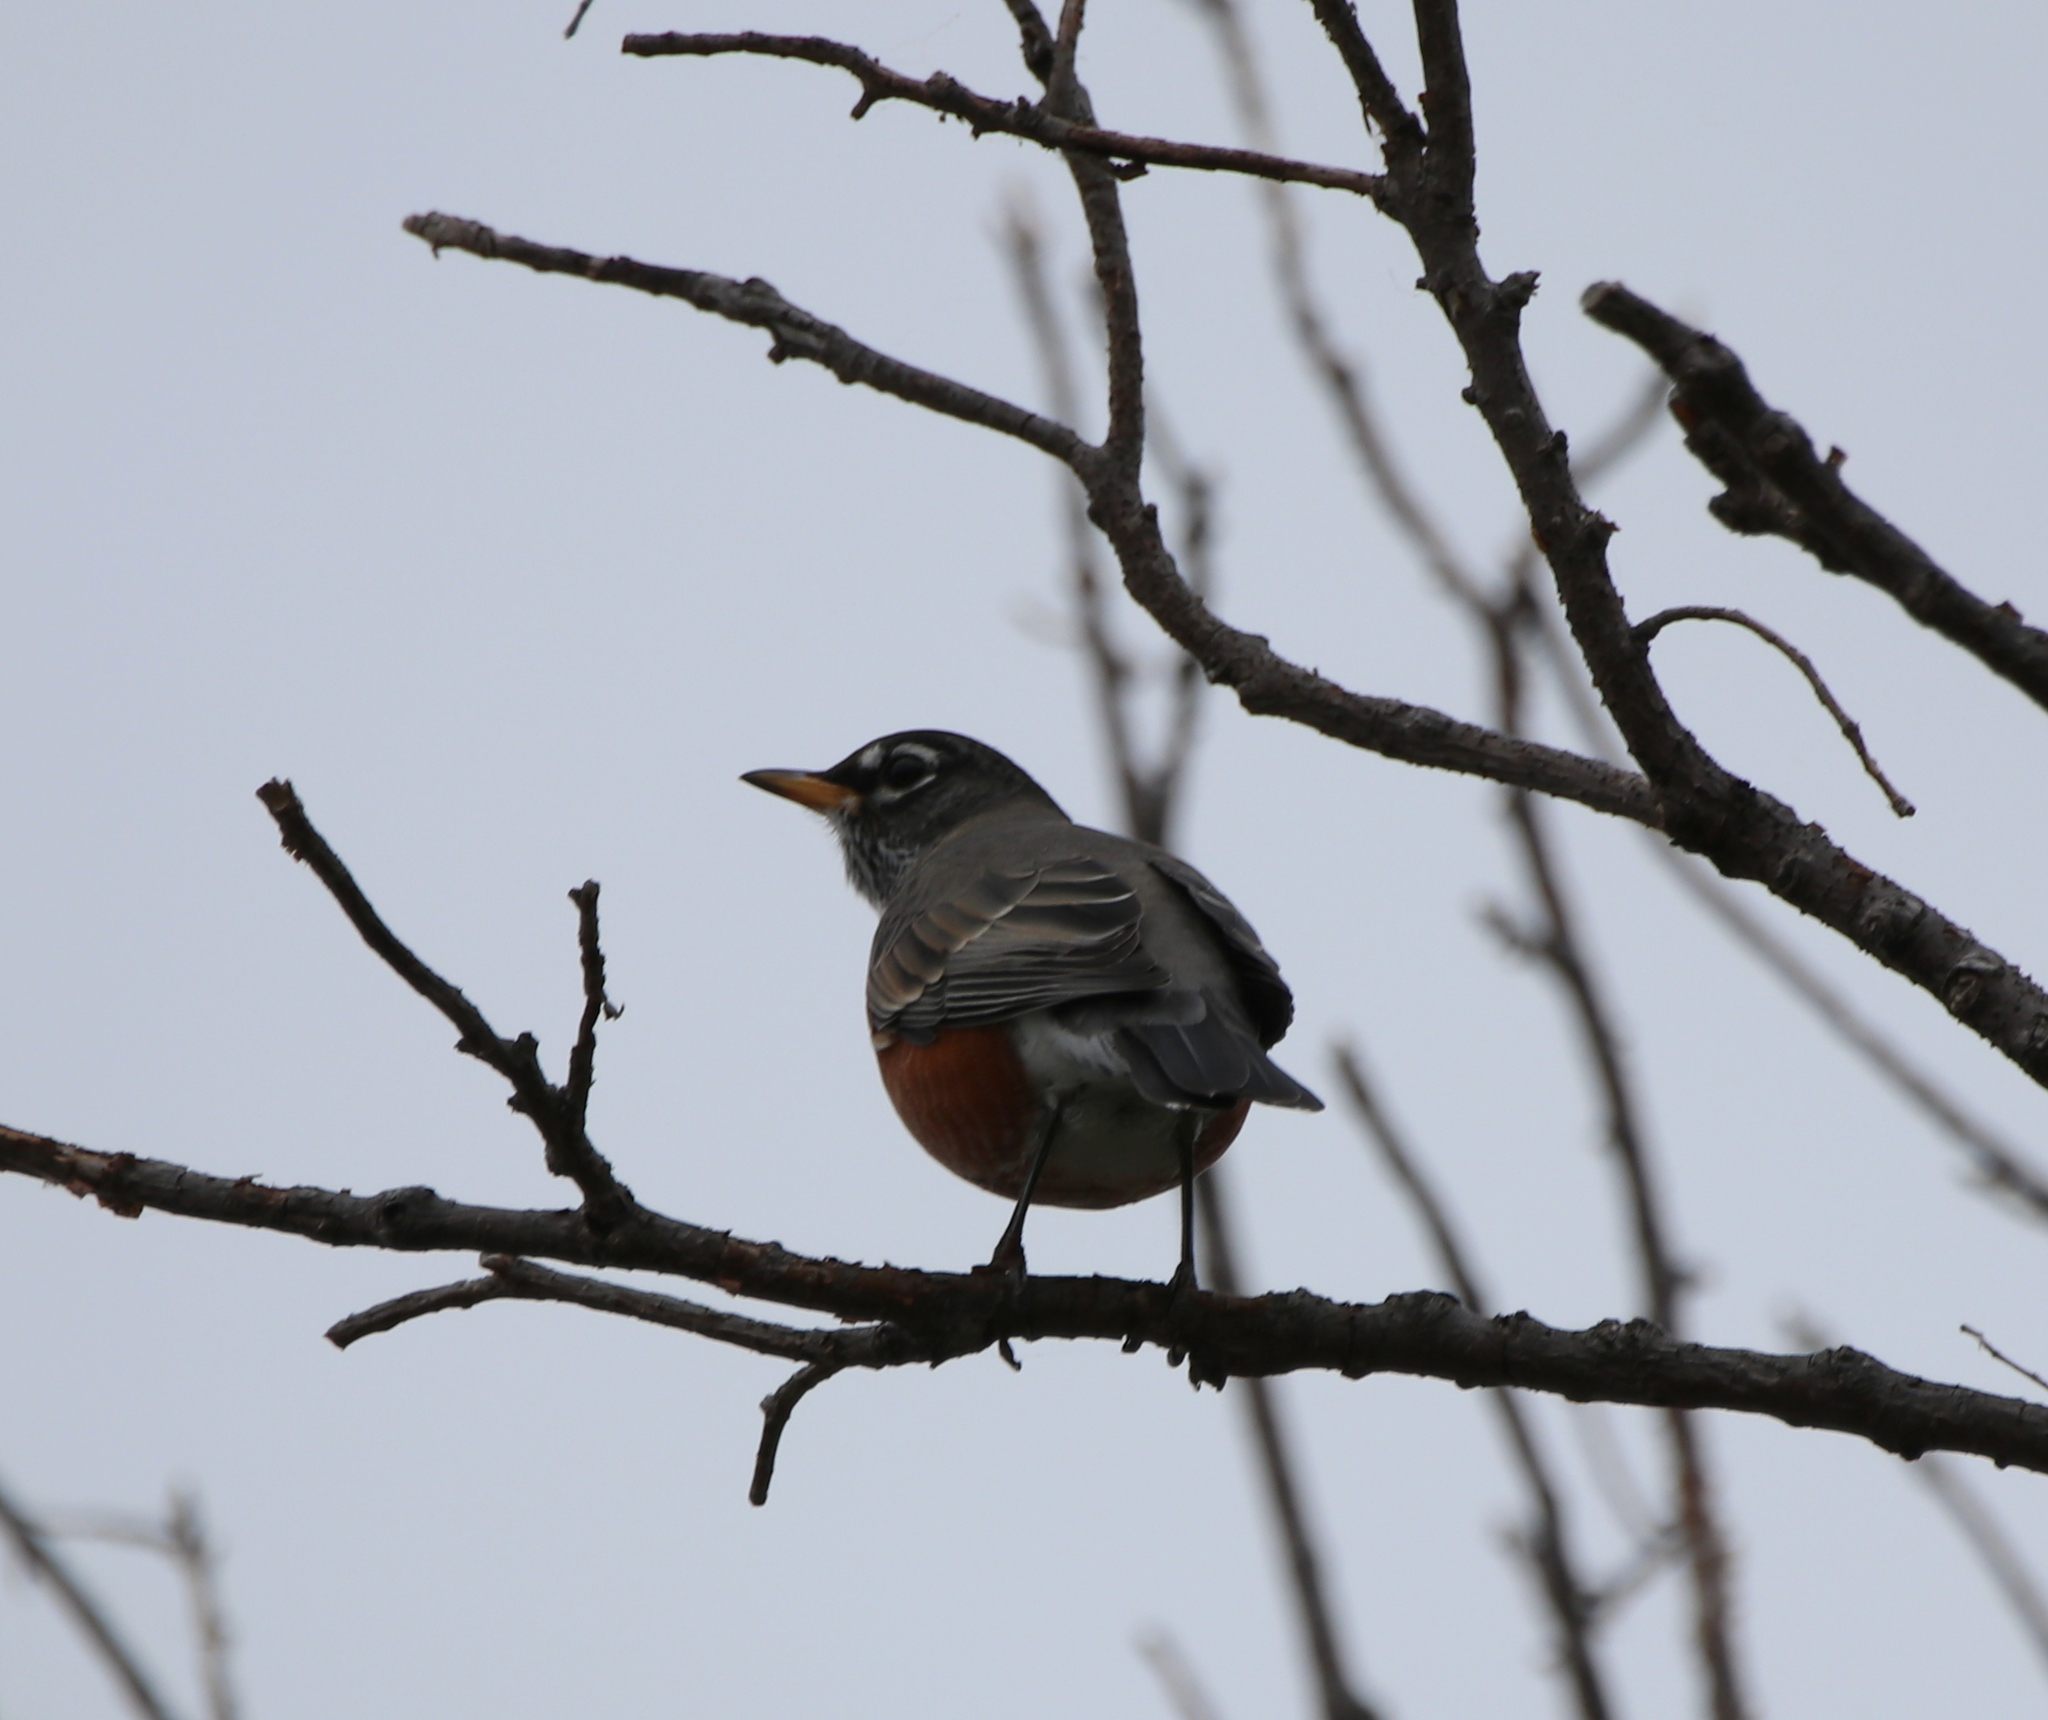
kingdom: Animalia
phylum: Chordata
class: Aves
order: Passeriformes
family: Turdidae
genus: Turdus
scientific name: Turdus migratorius
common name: American robin
